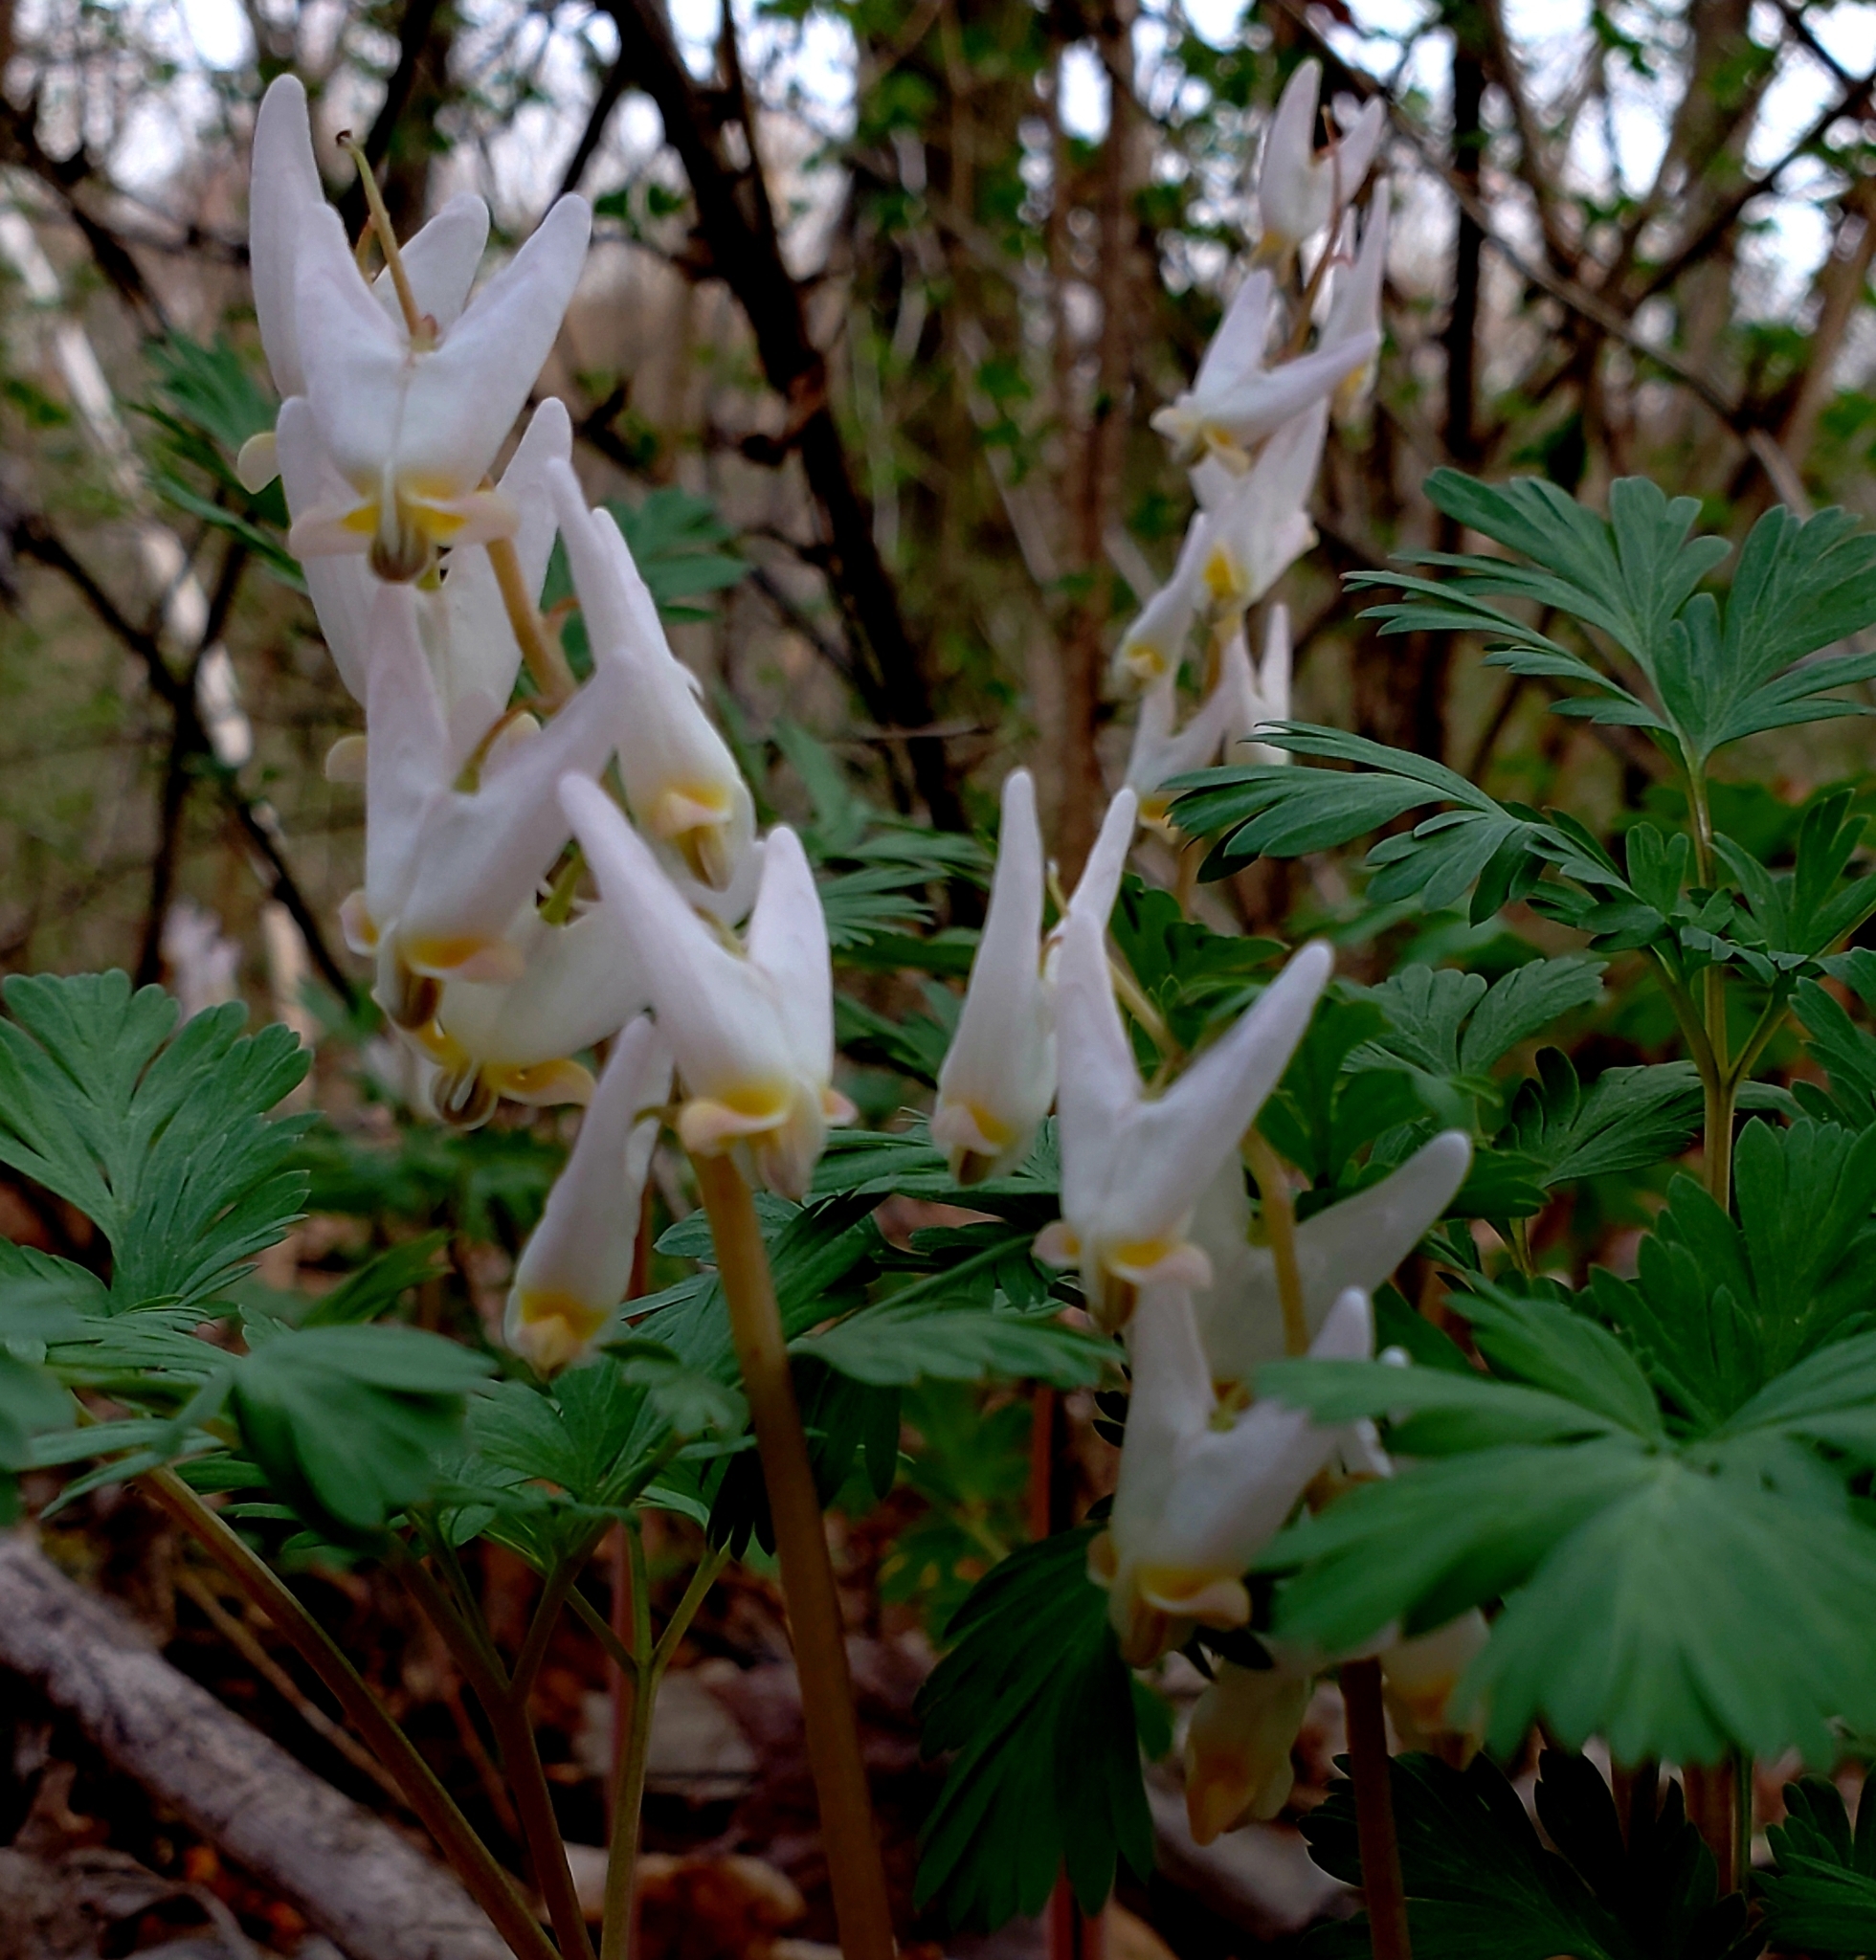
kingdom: Plantae
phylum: Tracheophyta
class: Magnoliopsida
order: Ranunculales
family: Papaveraceae
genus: Dicentra
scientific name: Dicentra cucullaria
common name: Dutchman's breeches
